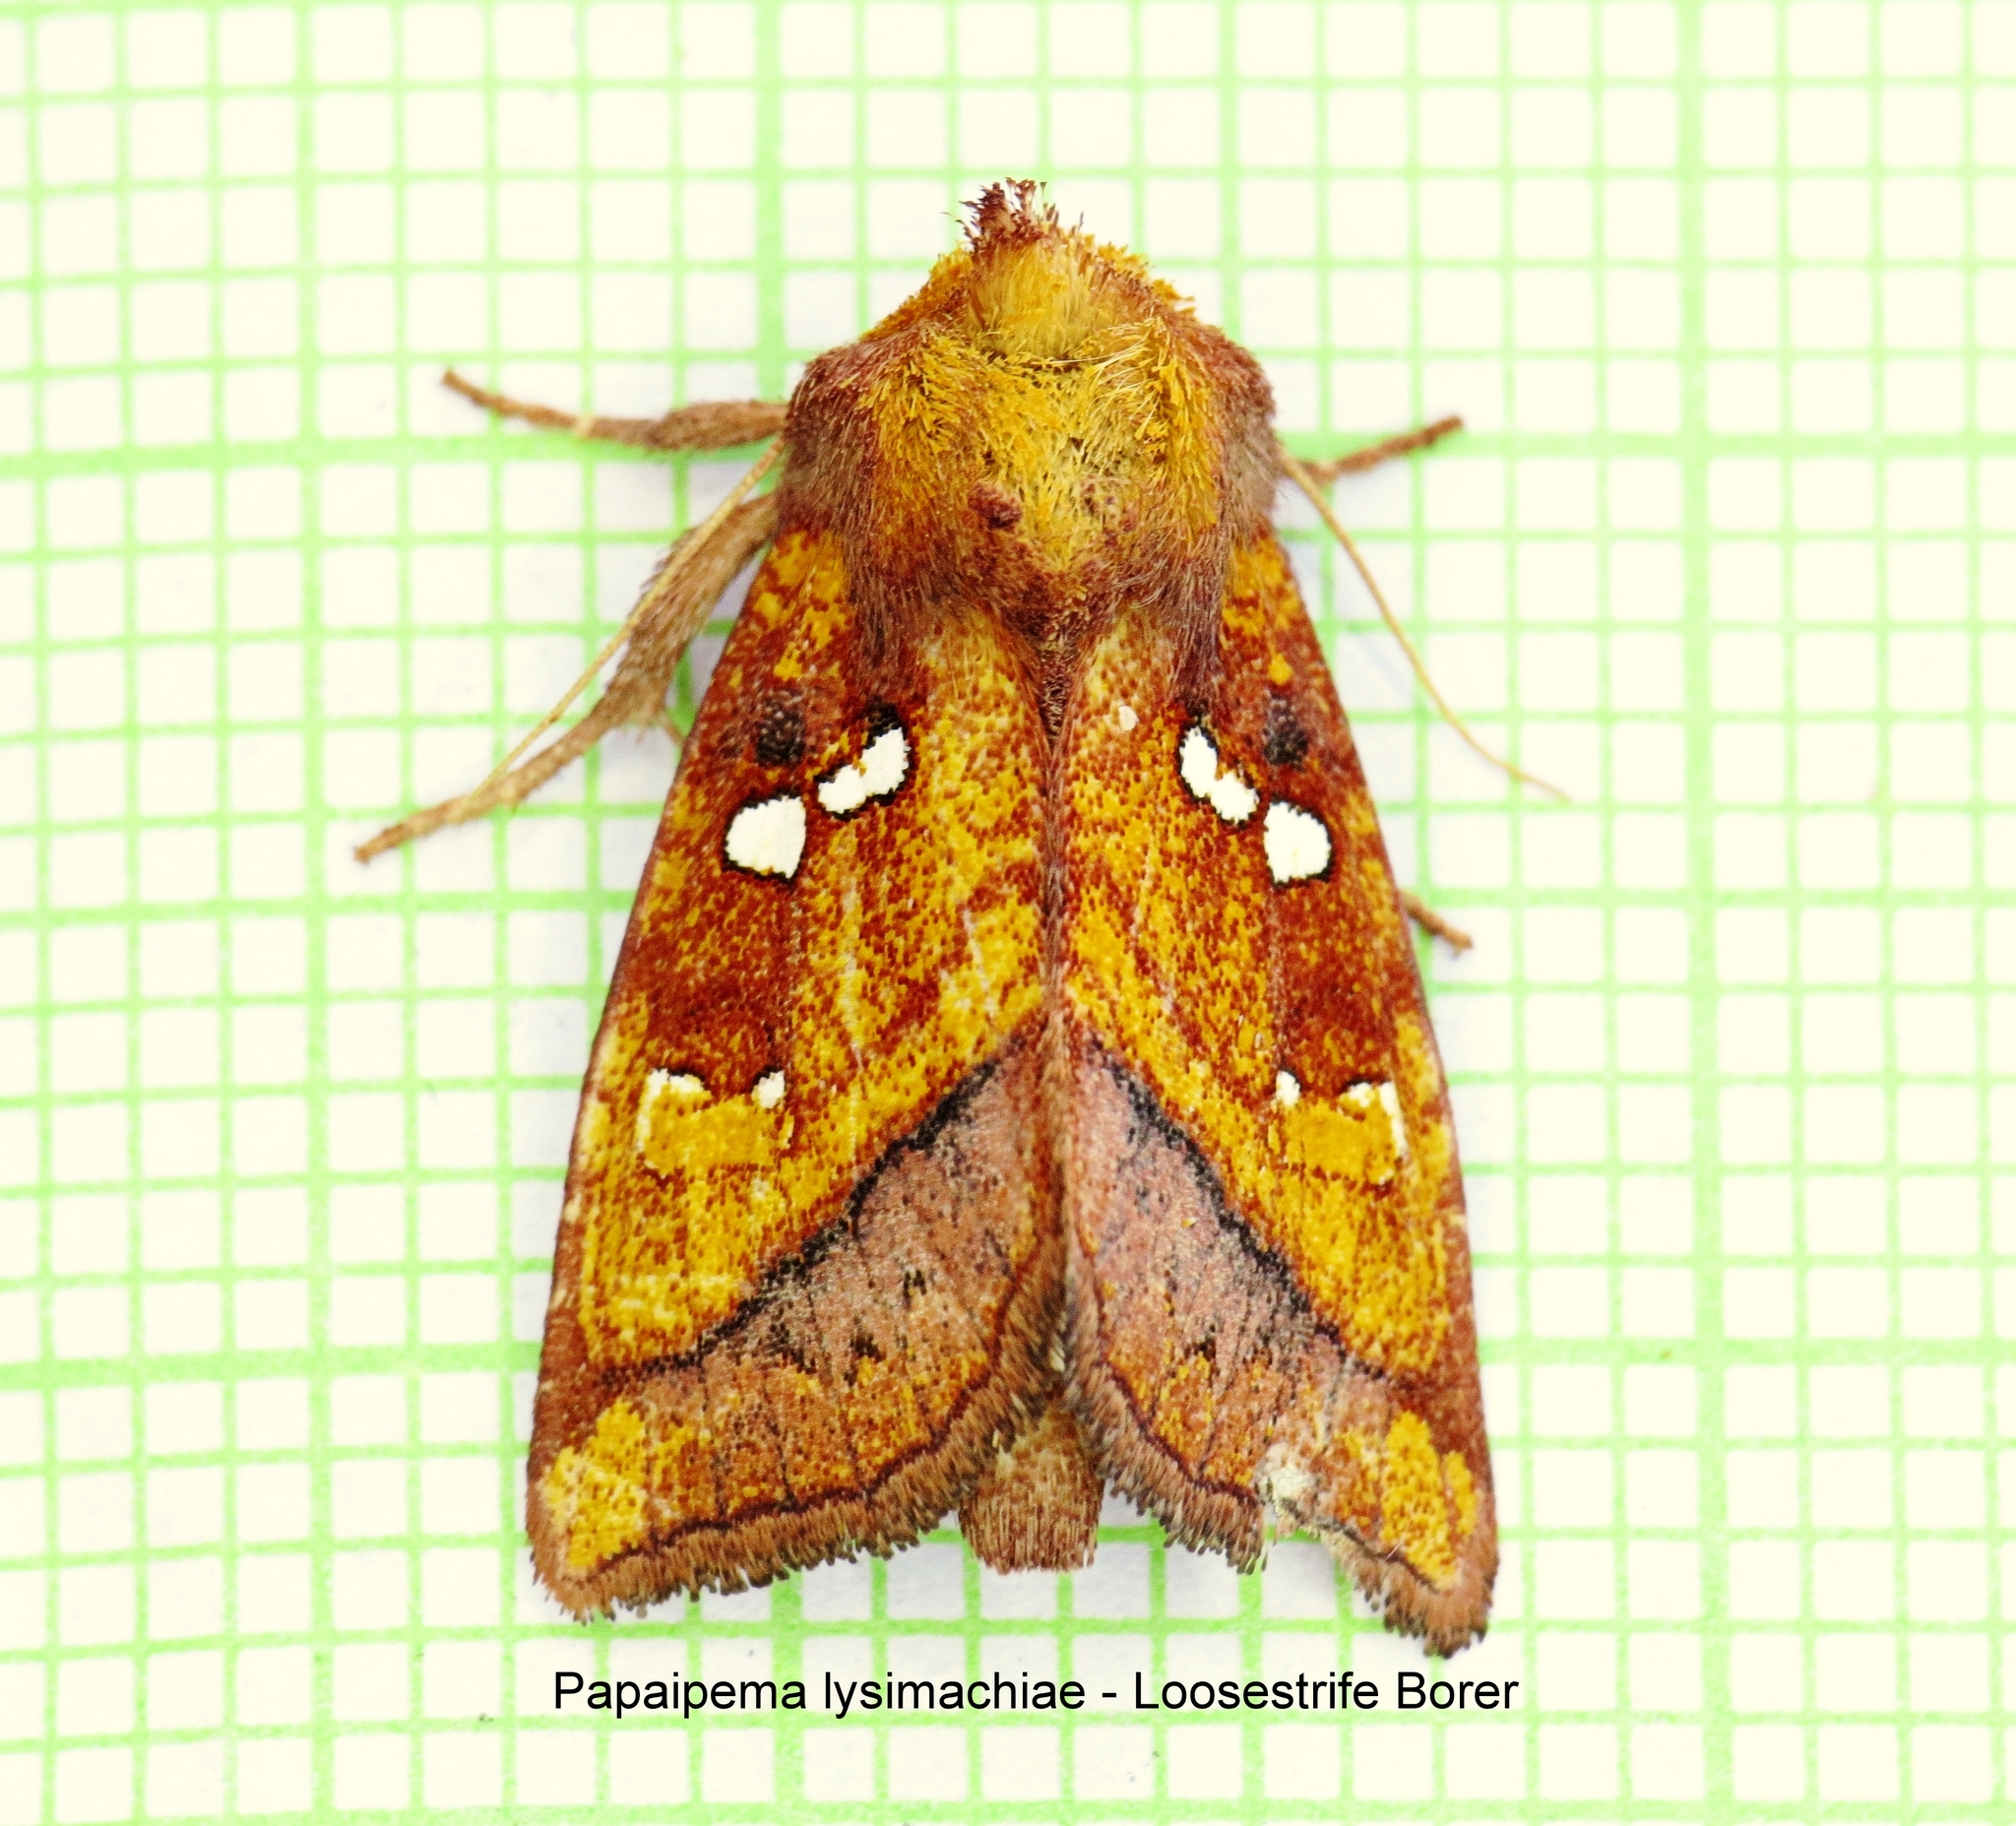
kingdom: Animalia
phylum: Arthropoda
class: Insecta
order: Lepidoptera
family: Noctuidae
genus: Papaipema
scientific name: Papaipema lysimachiae
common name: Loosestrife borer moth
